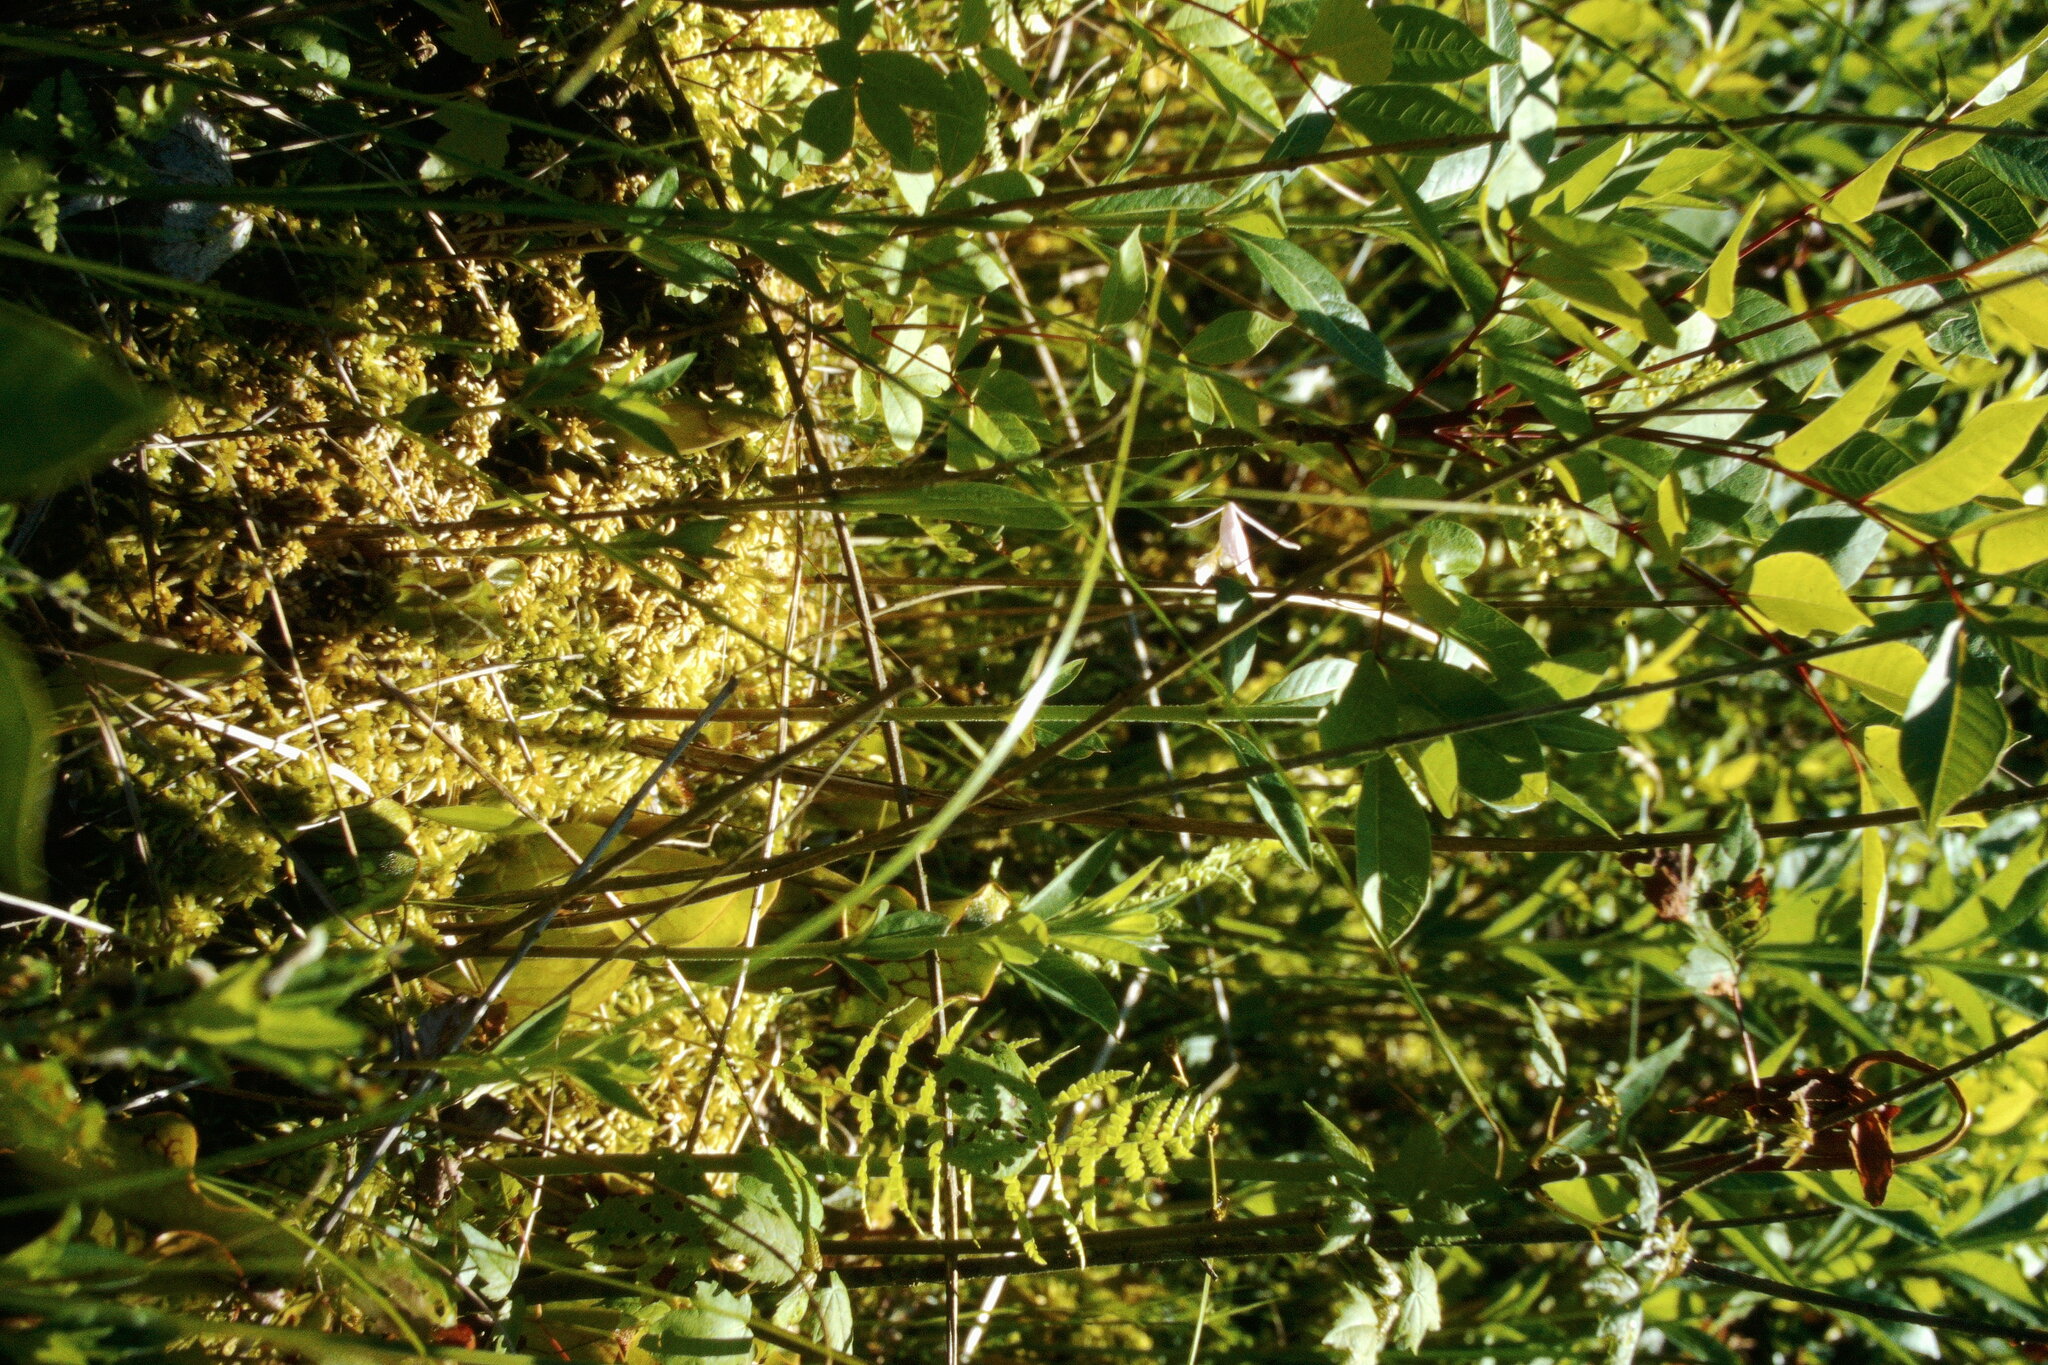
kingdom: Plantae
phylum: Tracheophyta
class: Liliopsida
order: Asparagales
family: Orchidaceae
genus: Pogonia
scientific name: Pogonia ophioglossoides
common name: Rose pogonia
